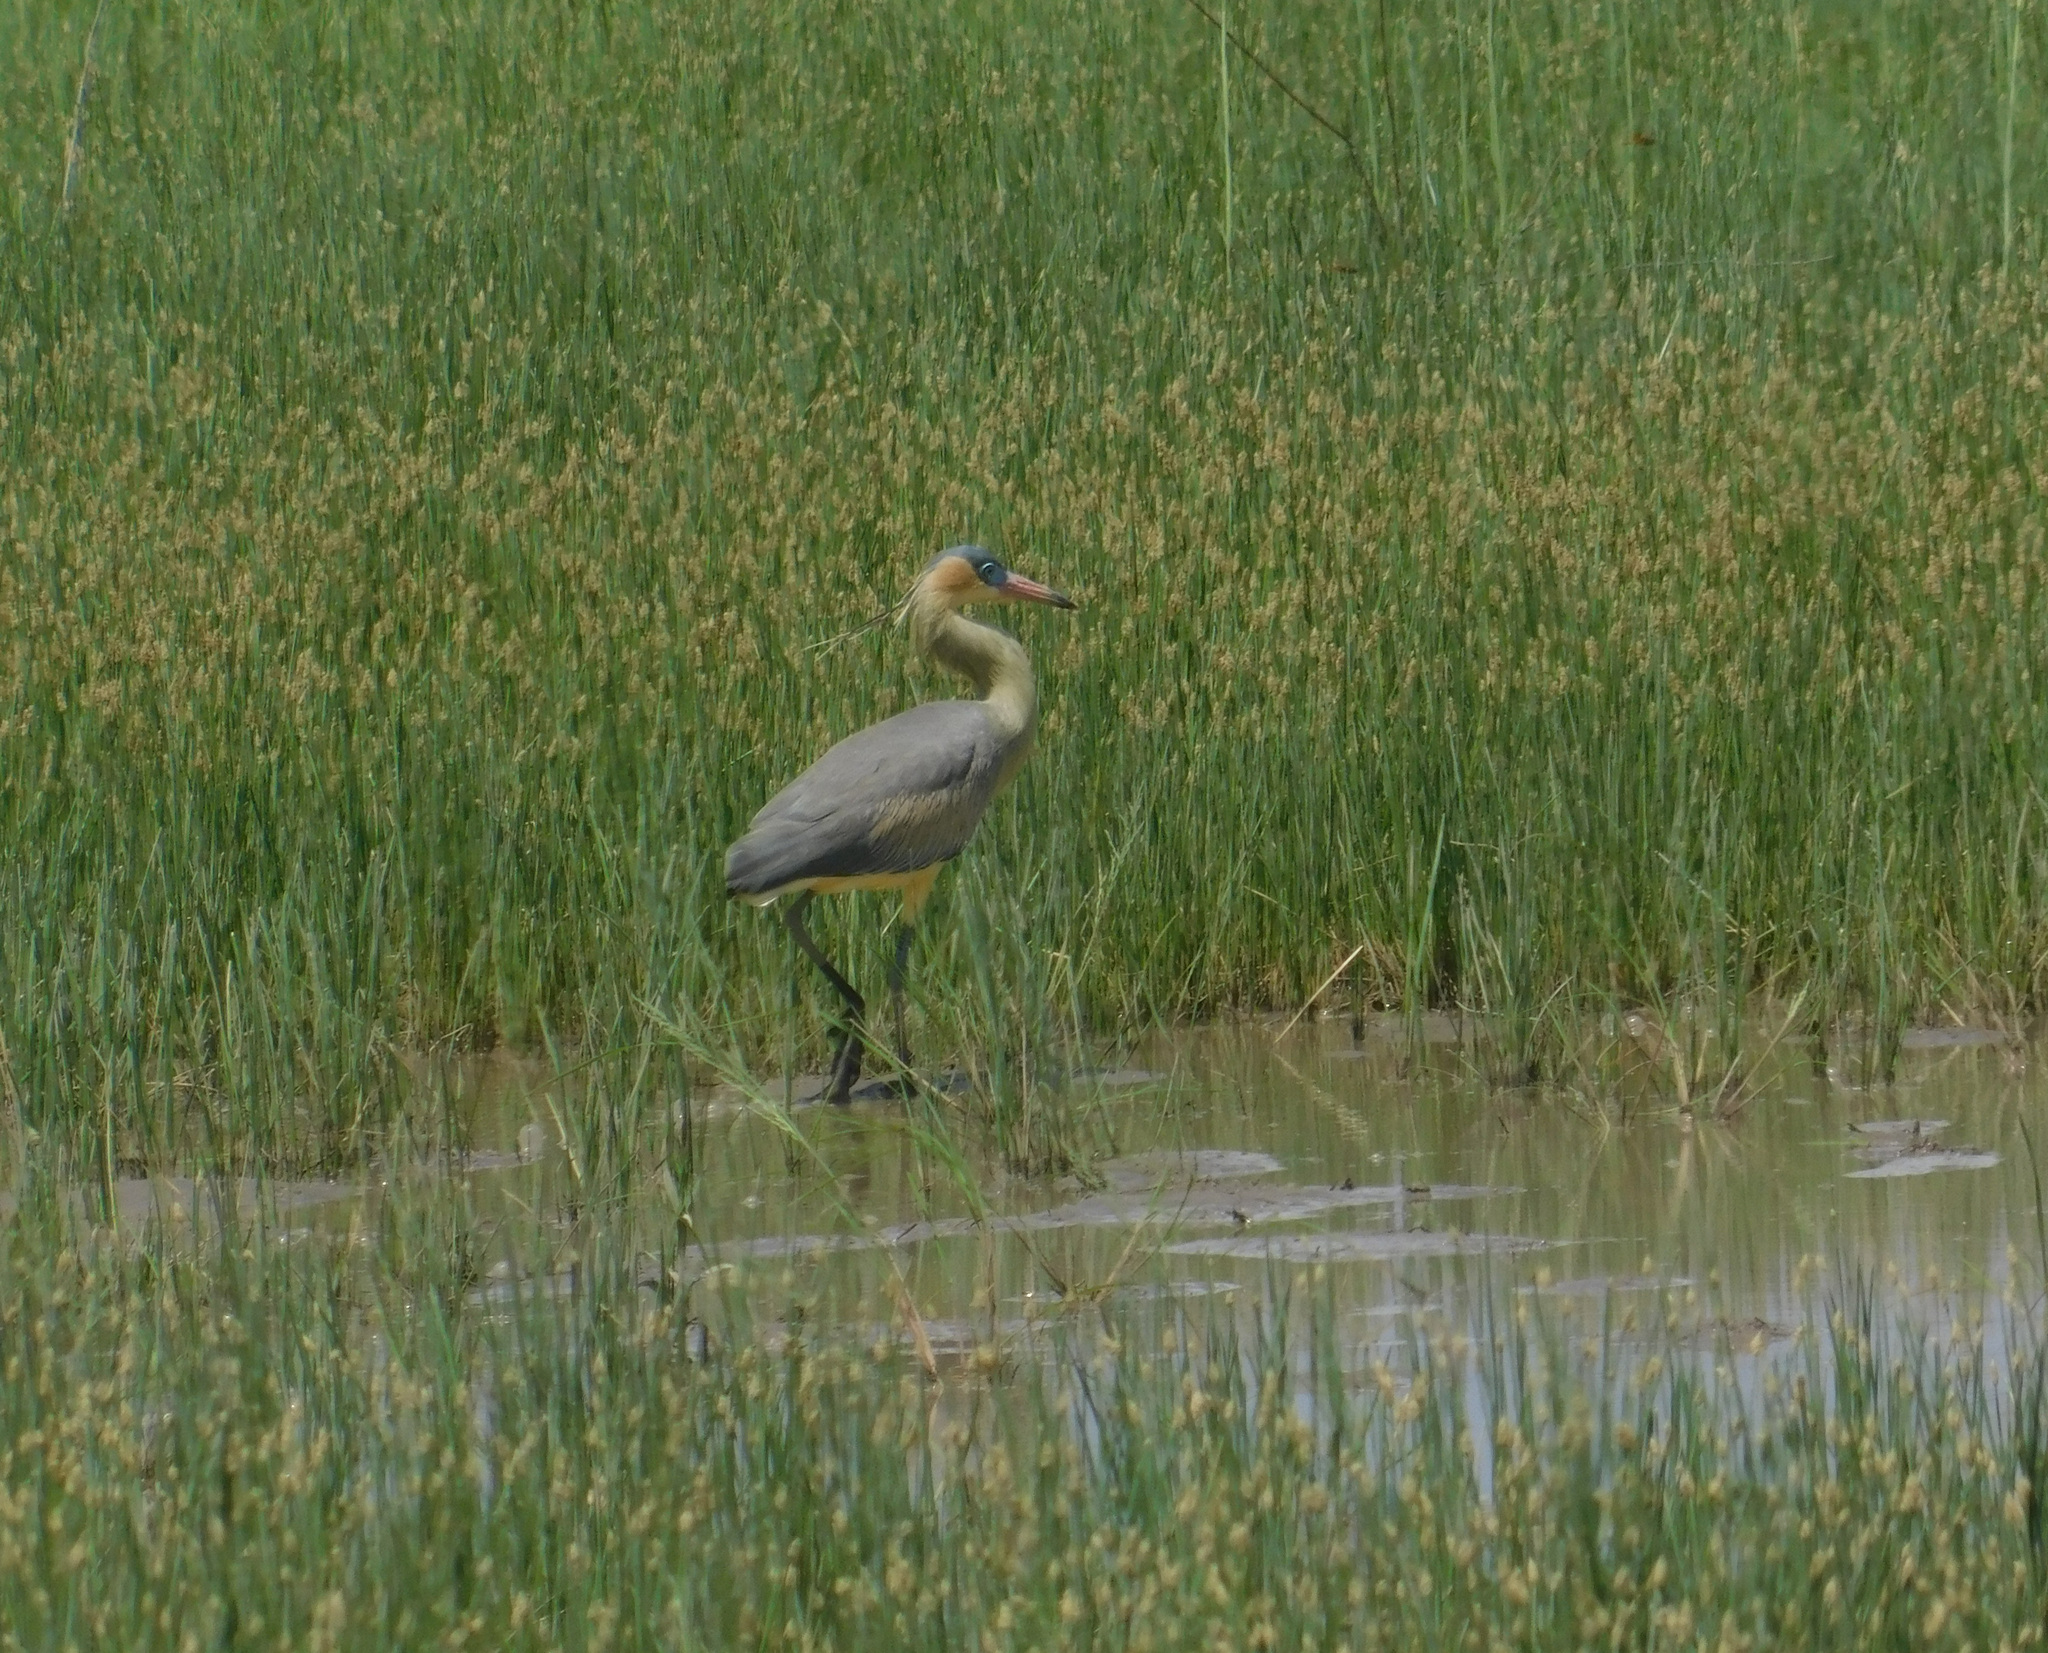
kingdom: Animalia
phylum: Chordata
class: Aves
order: Pelecaniformes
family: Ardeidae
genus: Syrigma
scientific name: Syrigma sibilatrix
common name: Whistling heron
